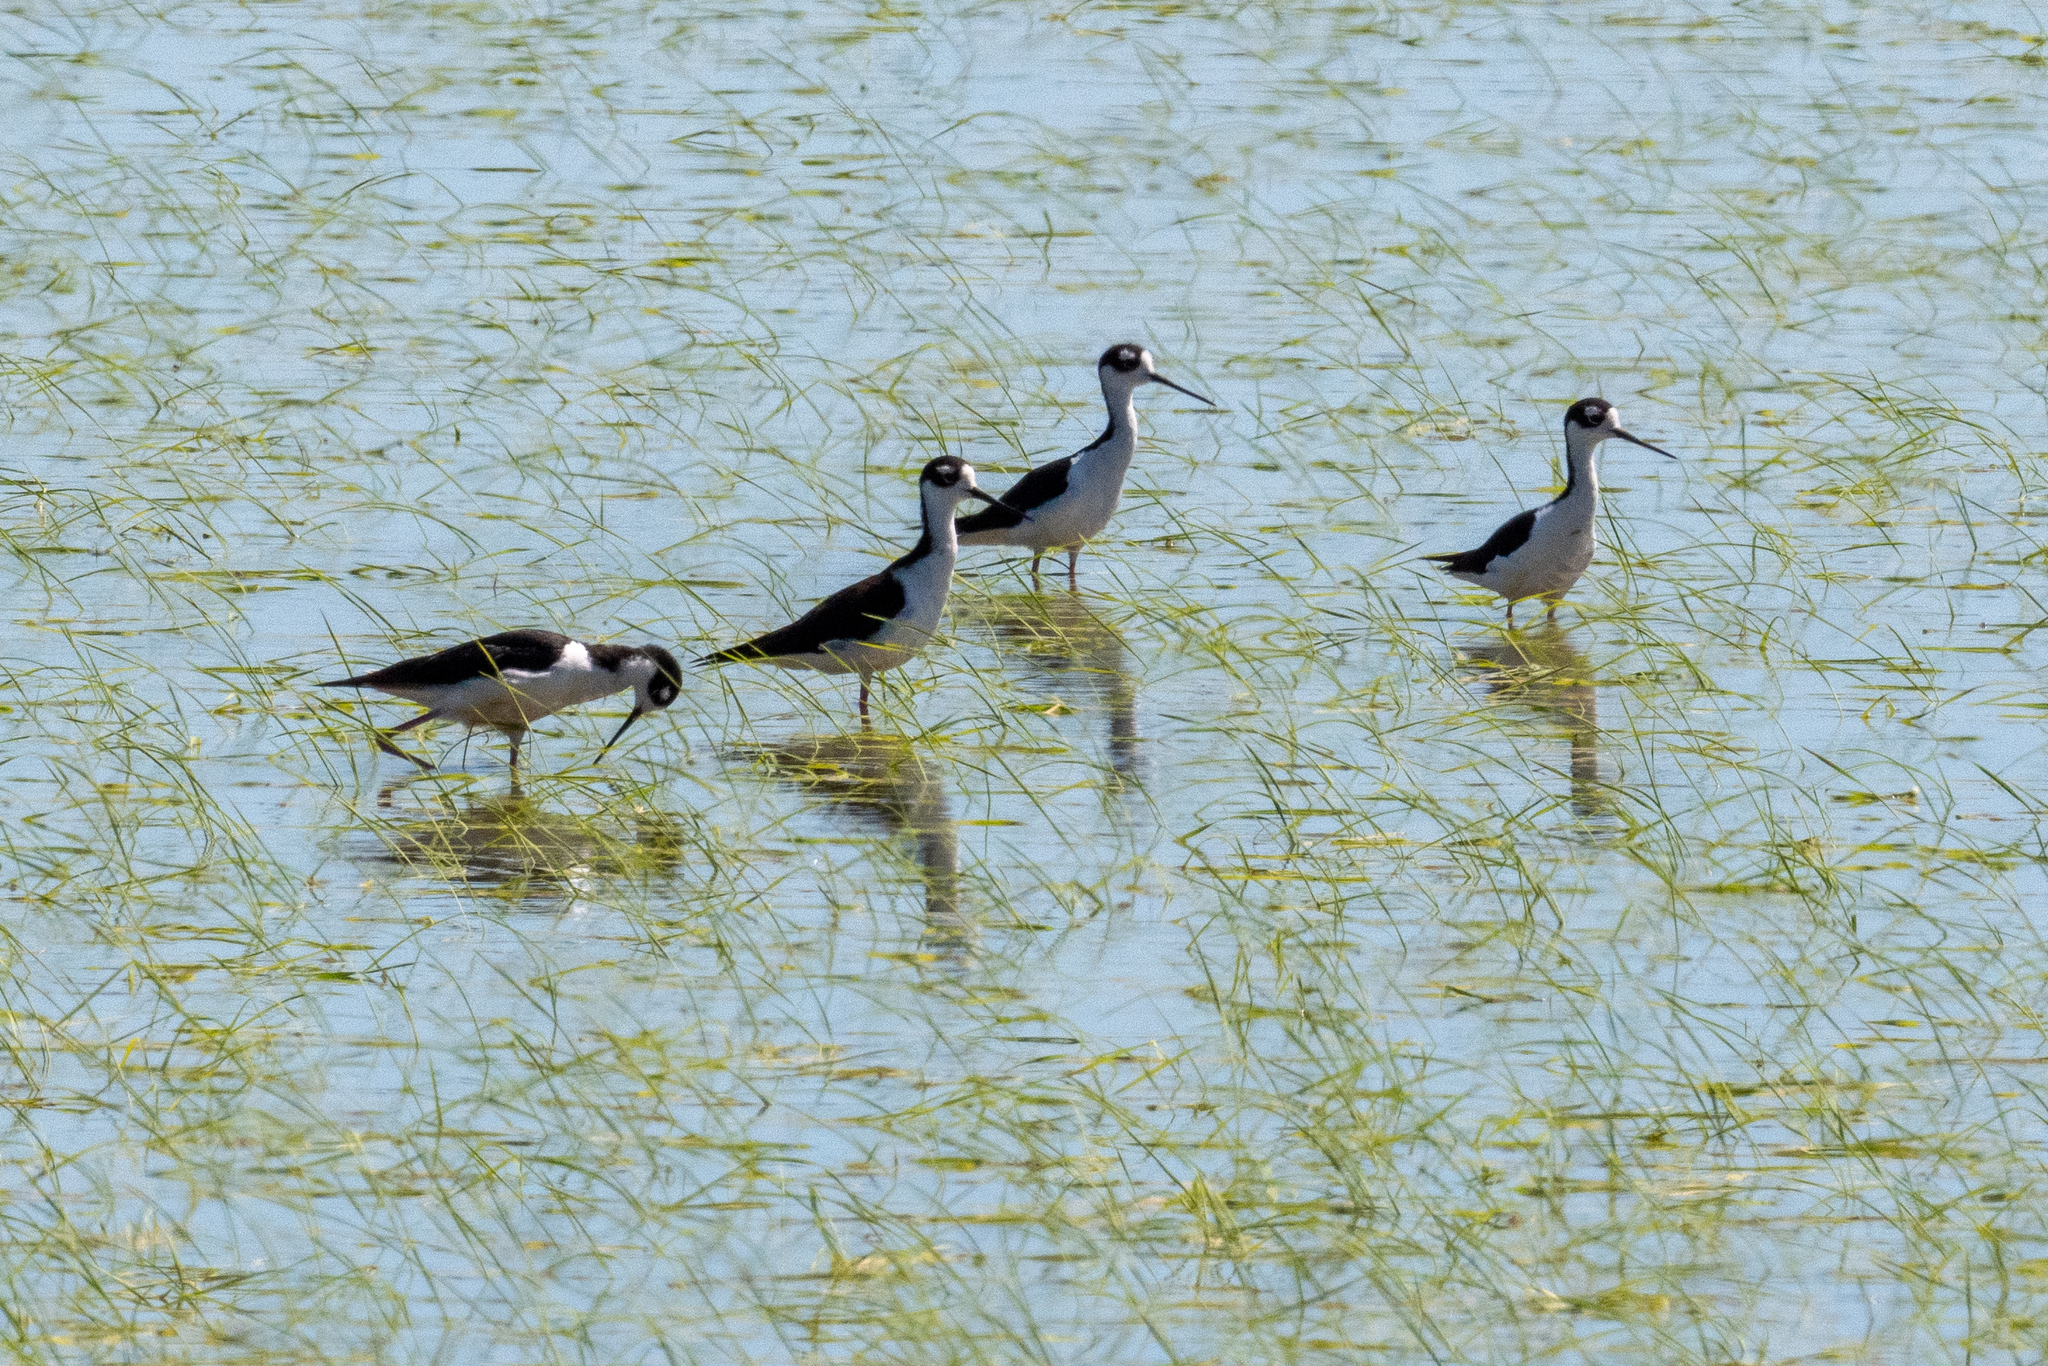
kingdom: Animalia
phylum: Chordata
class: Aves
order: Charadriiformes
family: Recurvirostridae
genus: Himantopus
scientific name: Himantopus mexicanus
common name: Black-necked stilt
